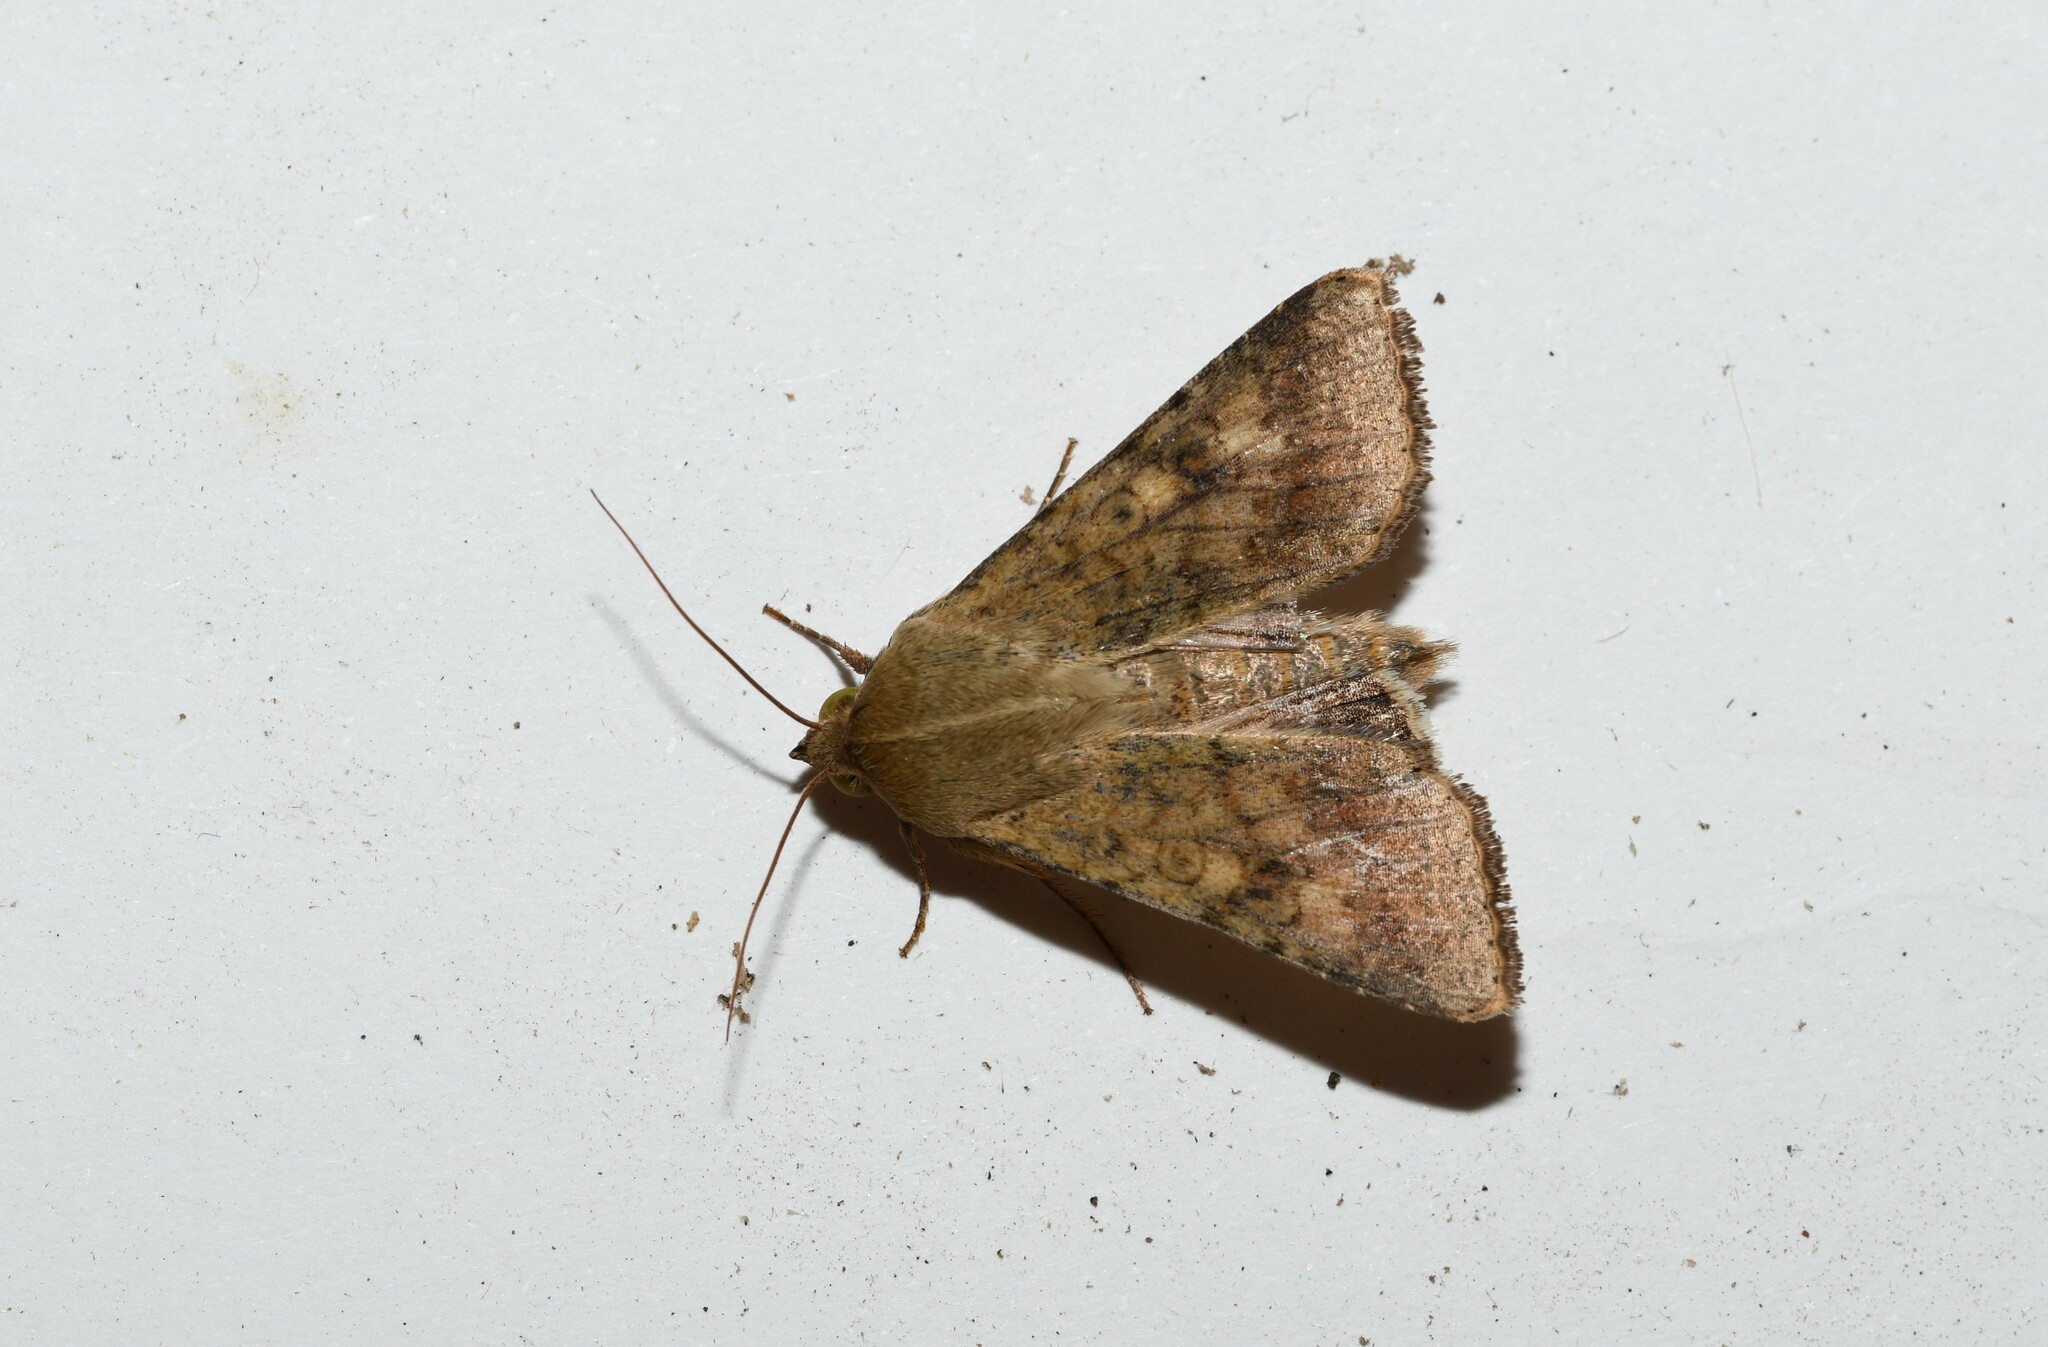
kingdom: Animalia
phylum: Arthropoda
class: Insecta
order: Lepidoptera
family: Noctuidae
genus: Helicoverpa
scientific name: Helicoverpa armigera
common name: Cotton bollworm
